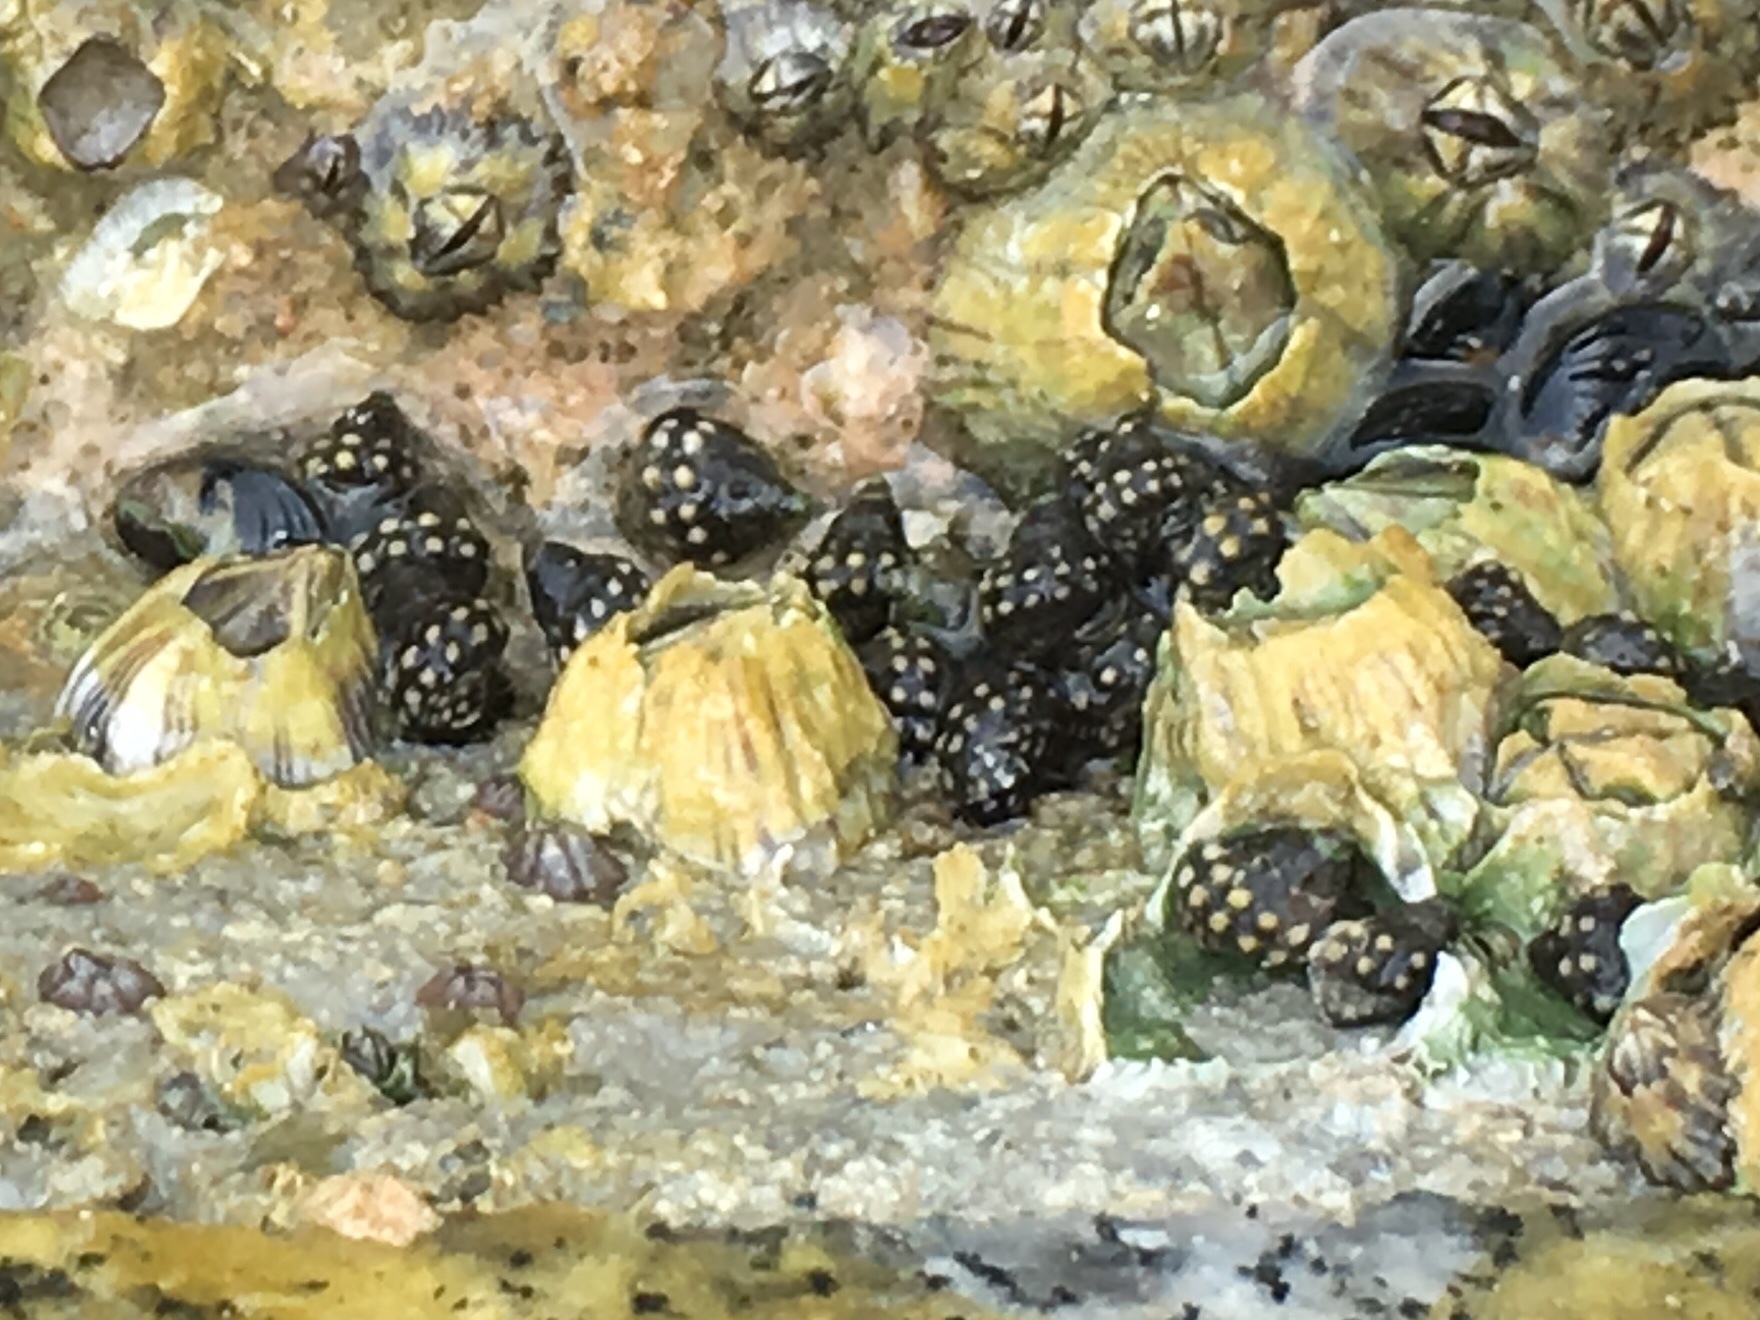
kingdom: Animalia
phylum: Mollusca
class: Gastropoda
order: Littorinimorpha
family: Littorinidae
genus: Echinolittorina
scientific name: Echinolittorina malaccana
